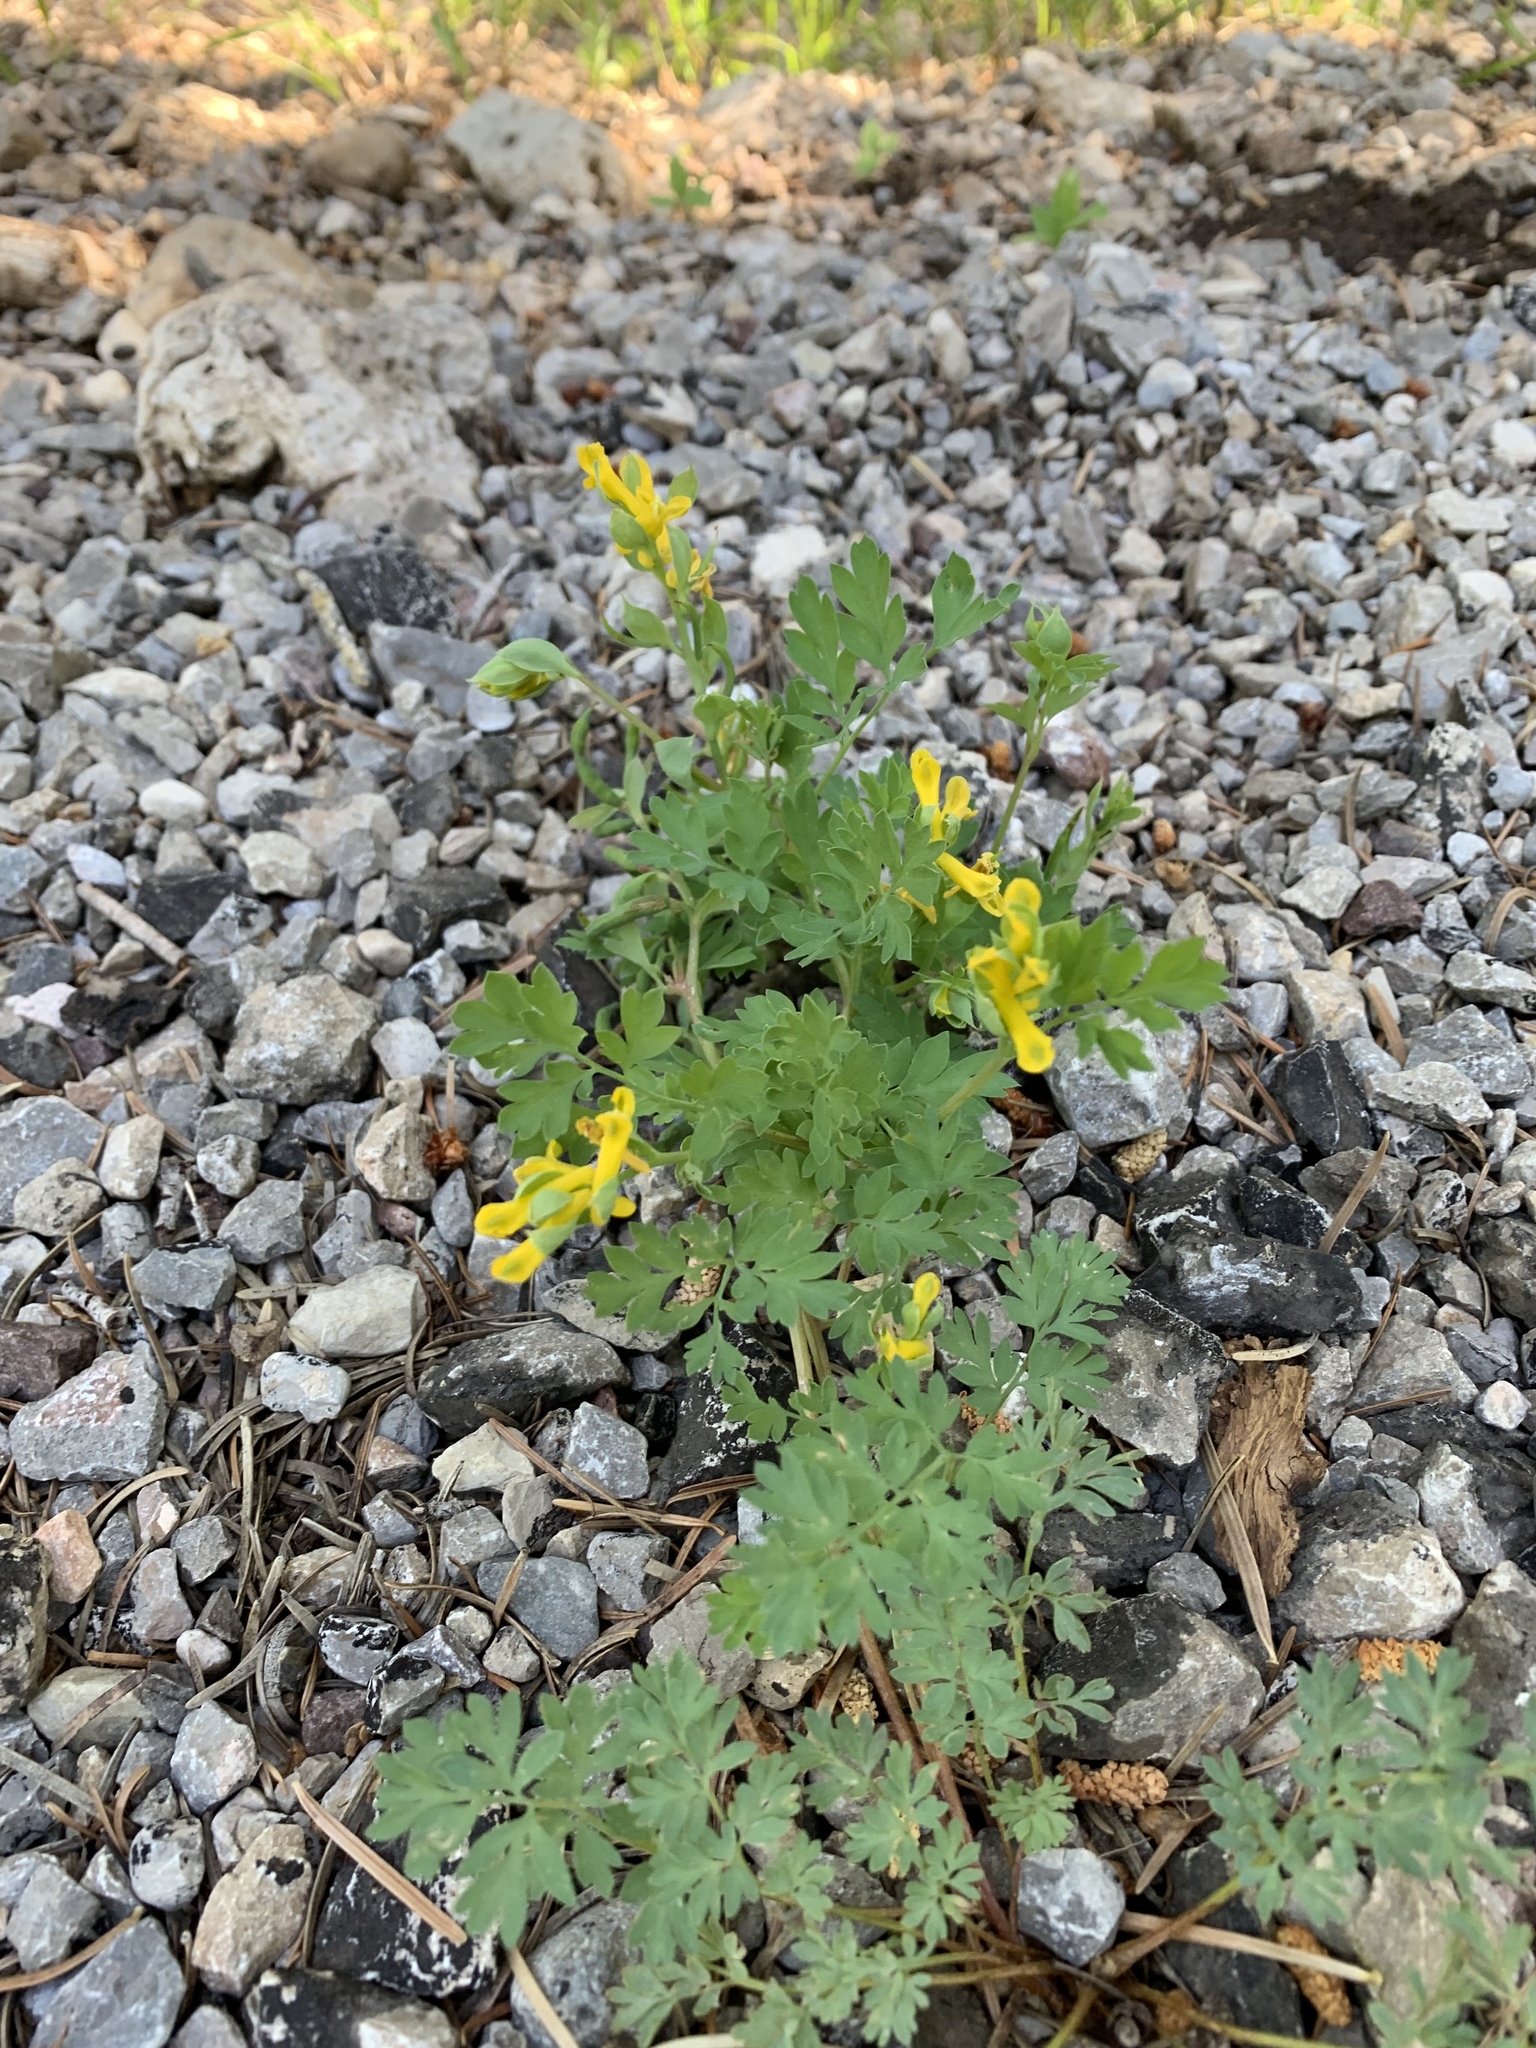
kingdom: Plantae
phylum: Tracheophyta
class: Magnoliopsida
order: Ranunculales
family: Papaveraceae
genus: Corydalis
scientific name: Corydalis aurea
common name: Golden corydalis
